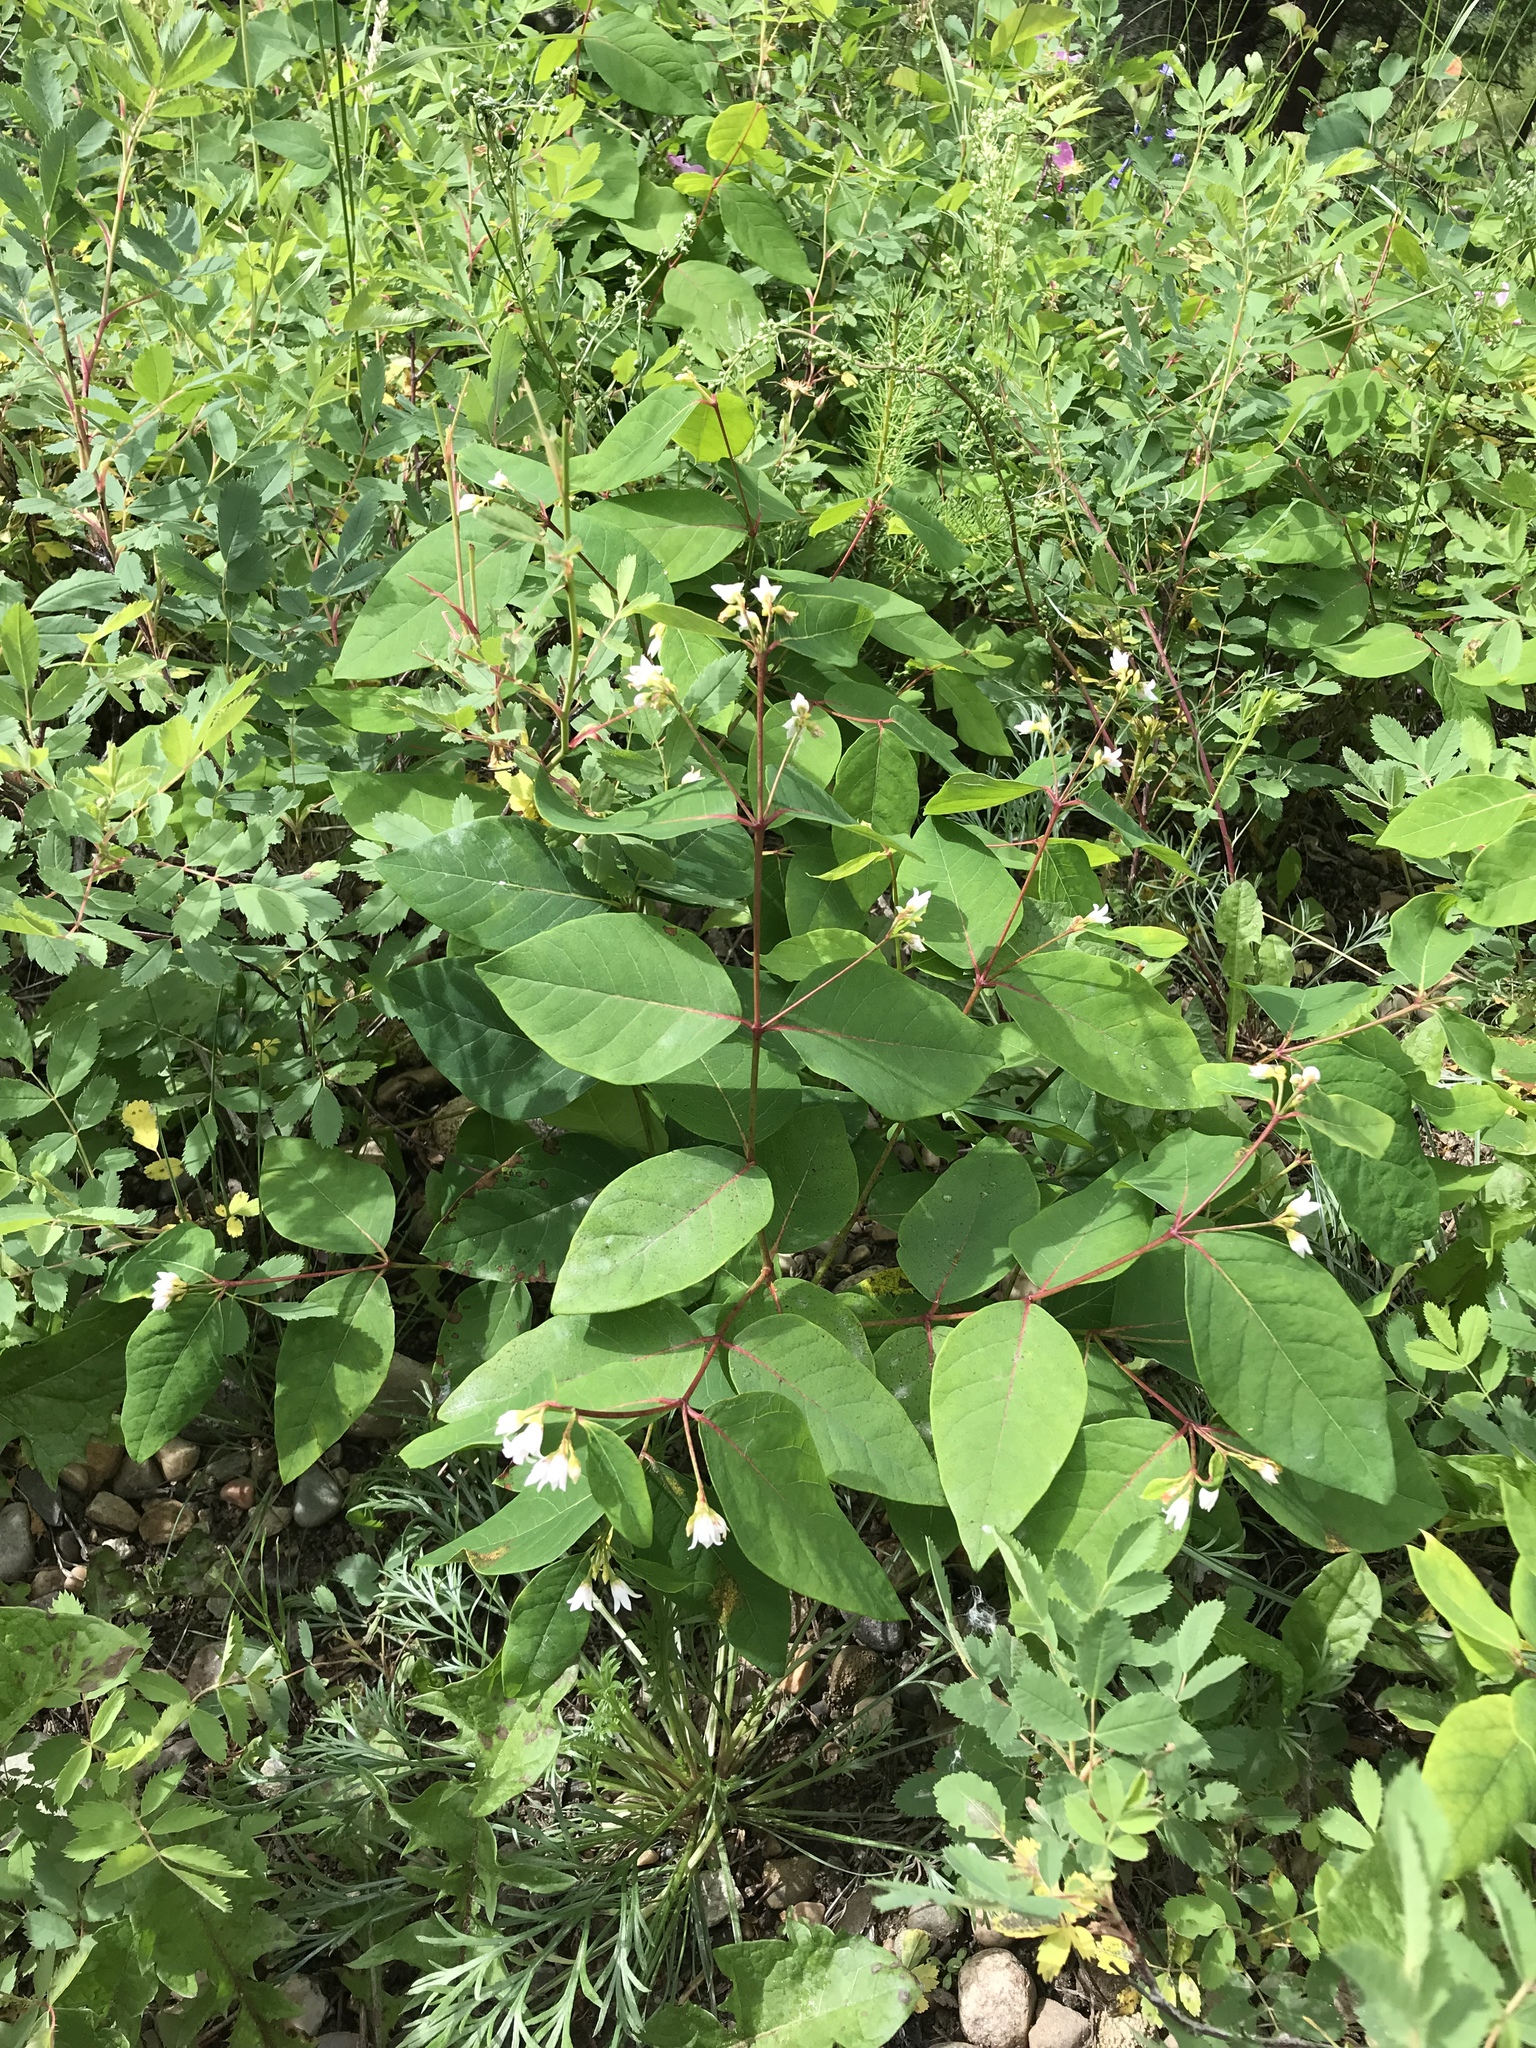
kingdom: Plantae
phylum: Tracheophyta
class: Magnoliopsida
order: Gentianales
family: Apocynaceae
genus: Apocynum
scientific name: Apocynum androsaemifolium
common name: Spreading dogbane
